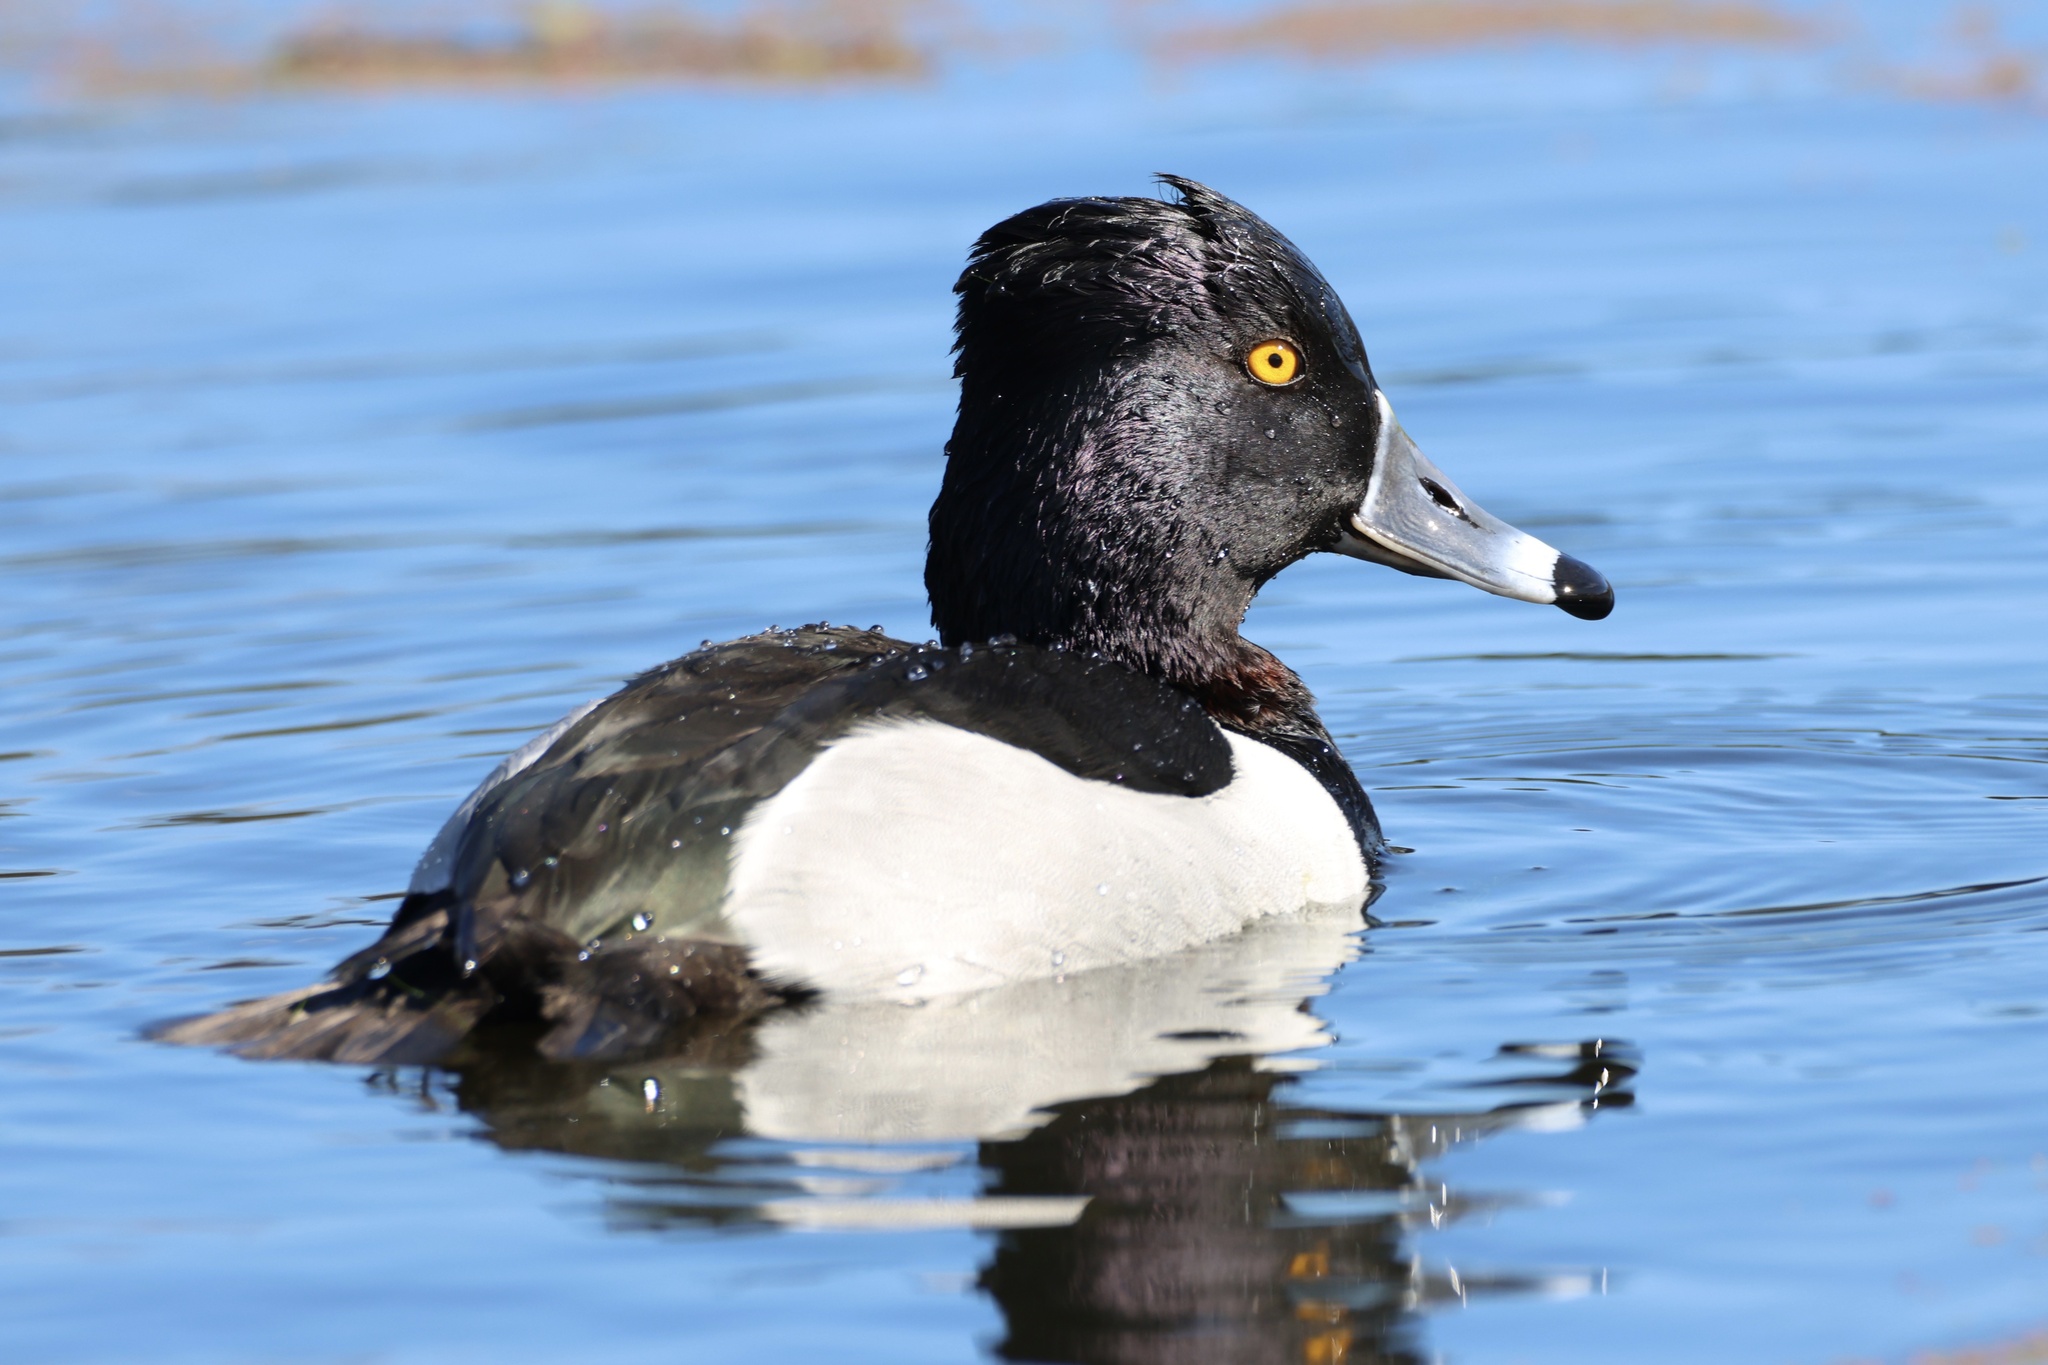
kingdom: Animalia
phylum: Chordata
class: Aves
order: Anseriformes
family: Anatidae
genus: Aythya
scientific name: Aythya collaris
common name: Ring-necked duck
